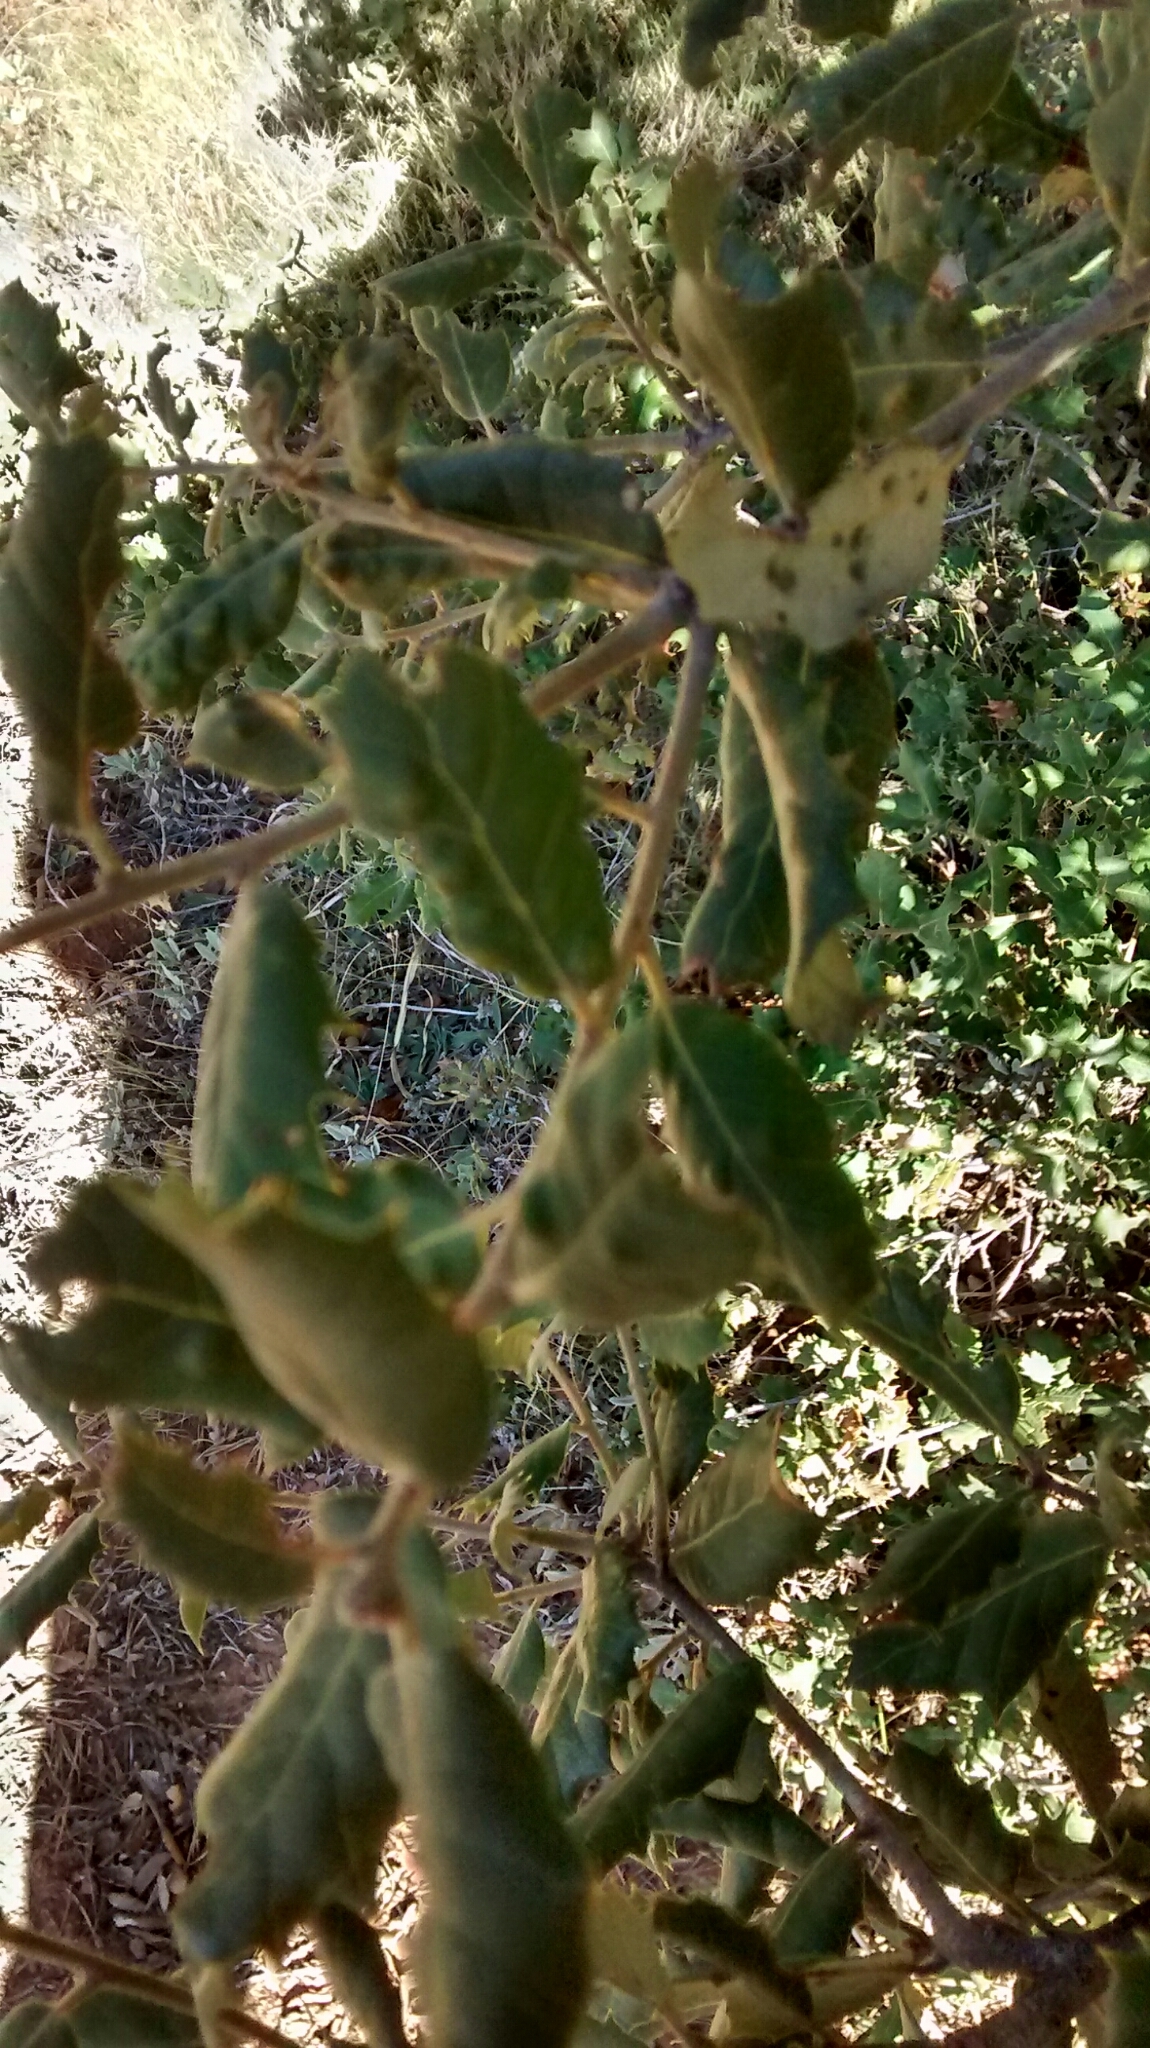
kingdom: Animalia
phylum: Arthropoda
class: Arachnida
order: Trombidiformes
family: Eriophyidae
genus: Aceria
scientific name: Aceria ilicis
